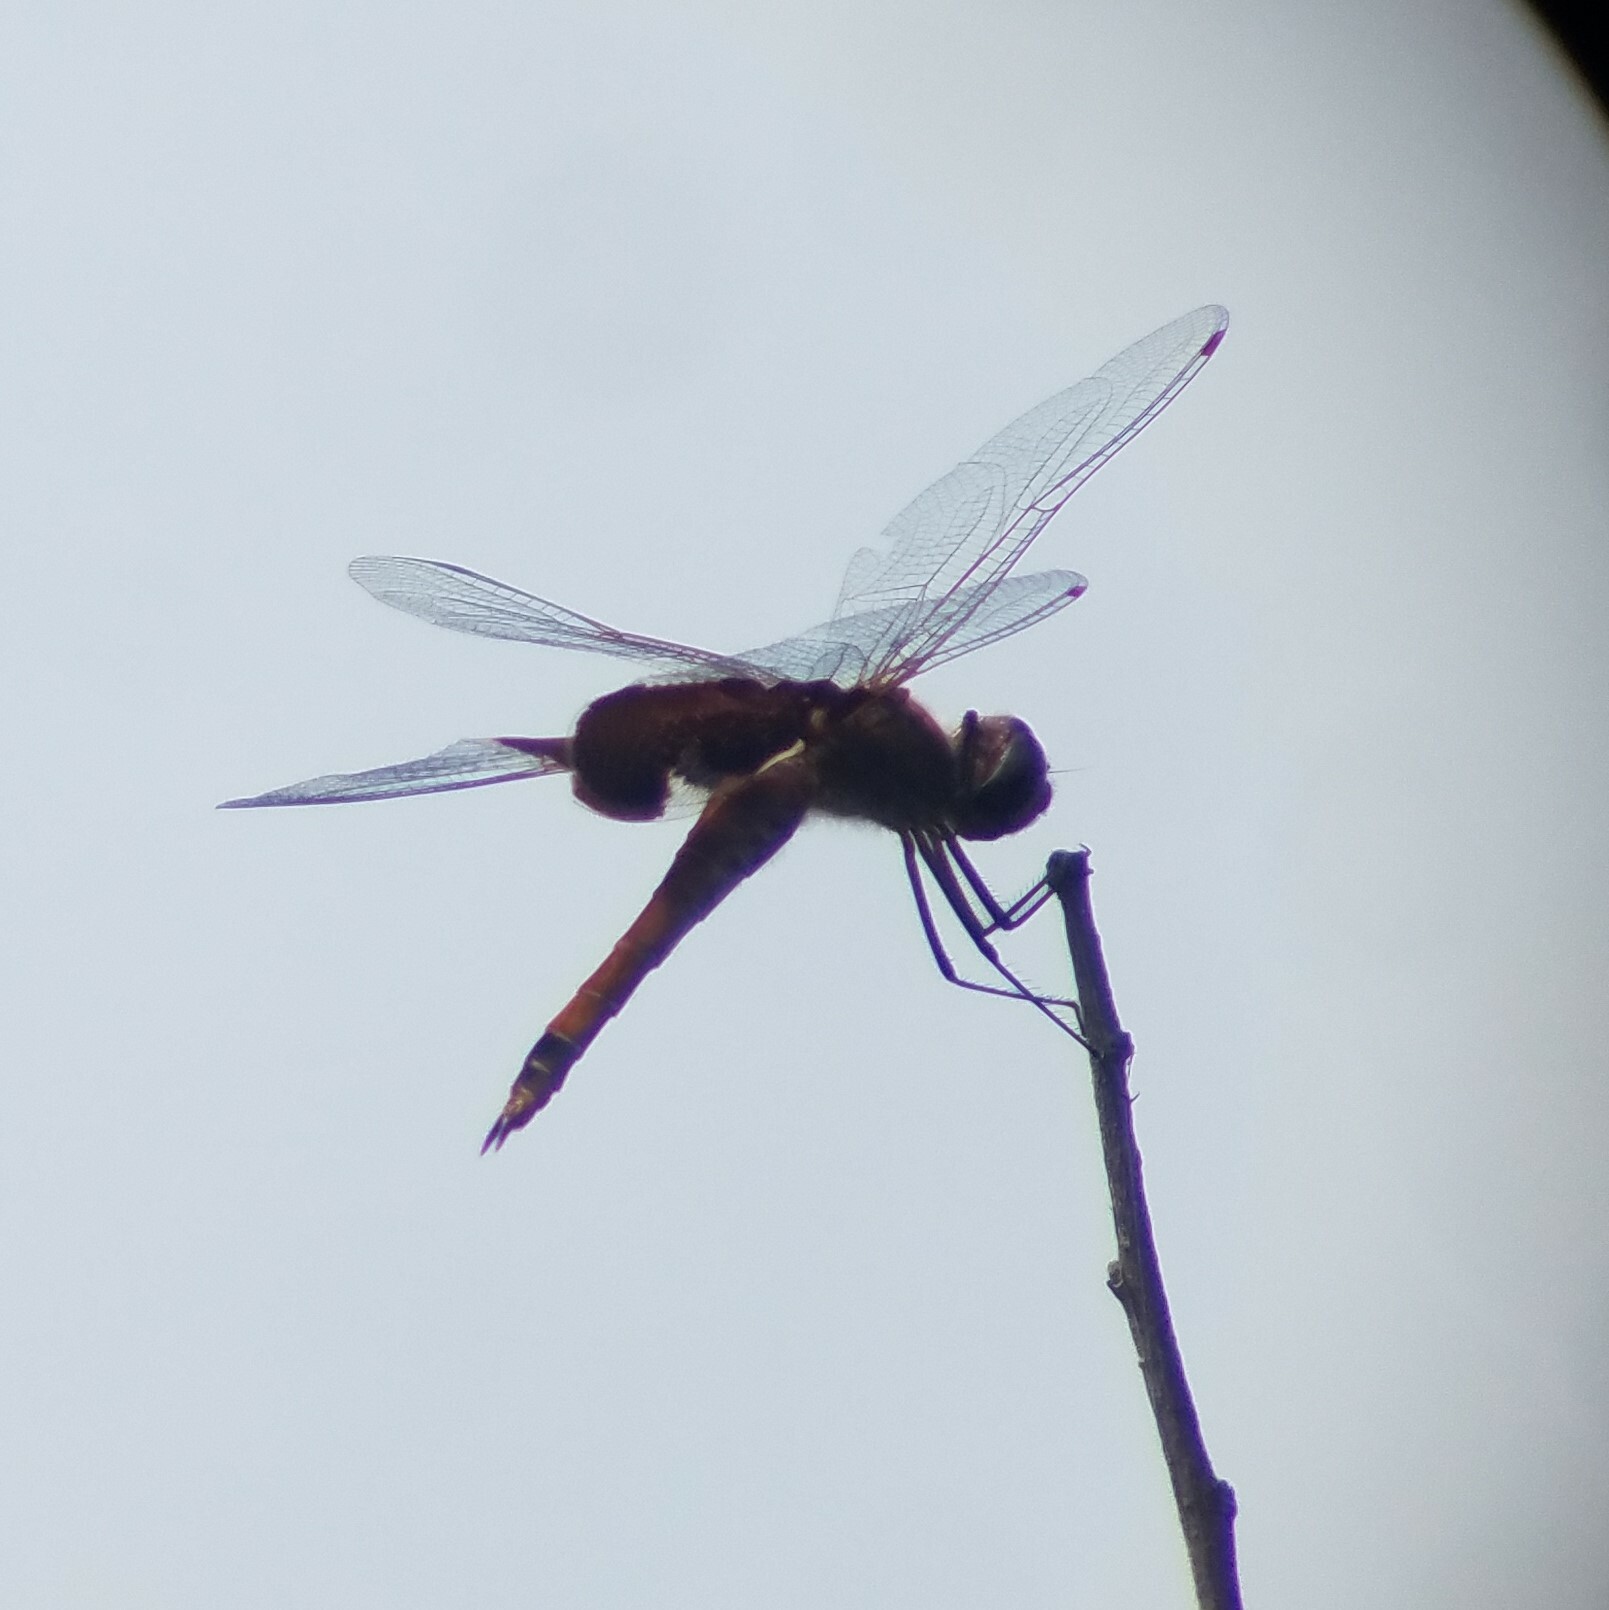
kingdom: Animalia
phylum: Arthropoda
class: Insecta
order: Odonata
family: Libellulidae
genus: Tramea
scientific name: Tramea carolina
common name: Carolina saddlebags
